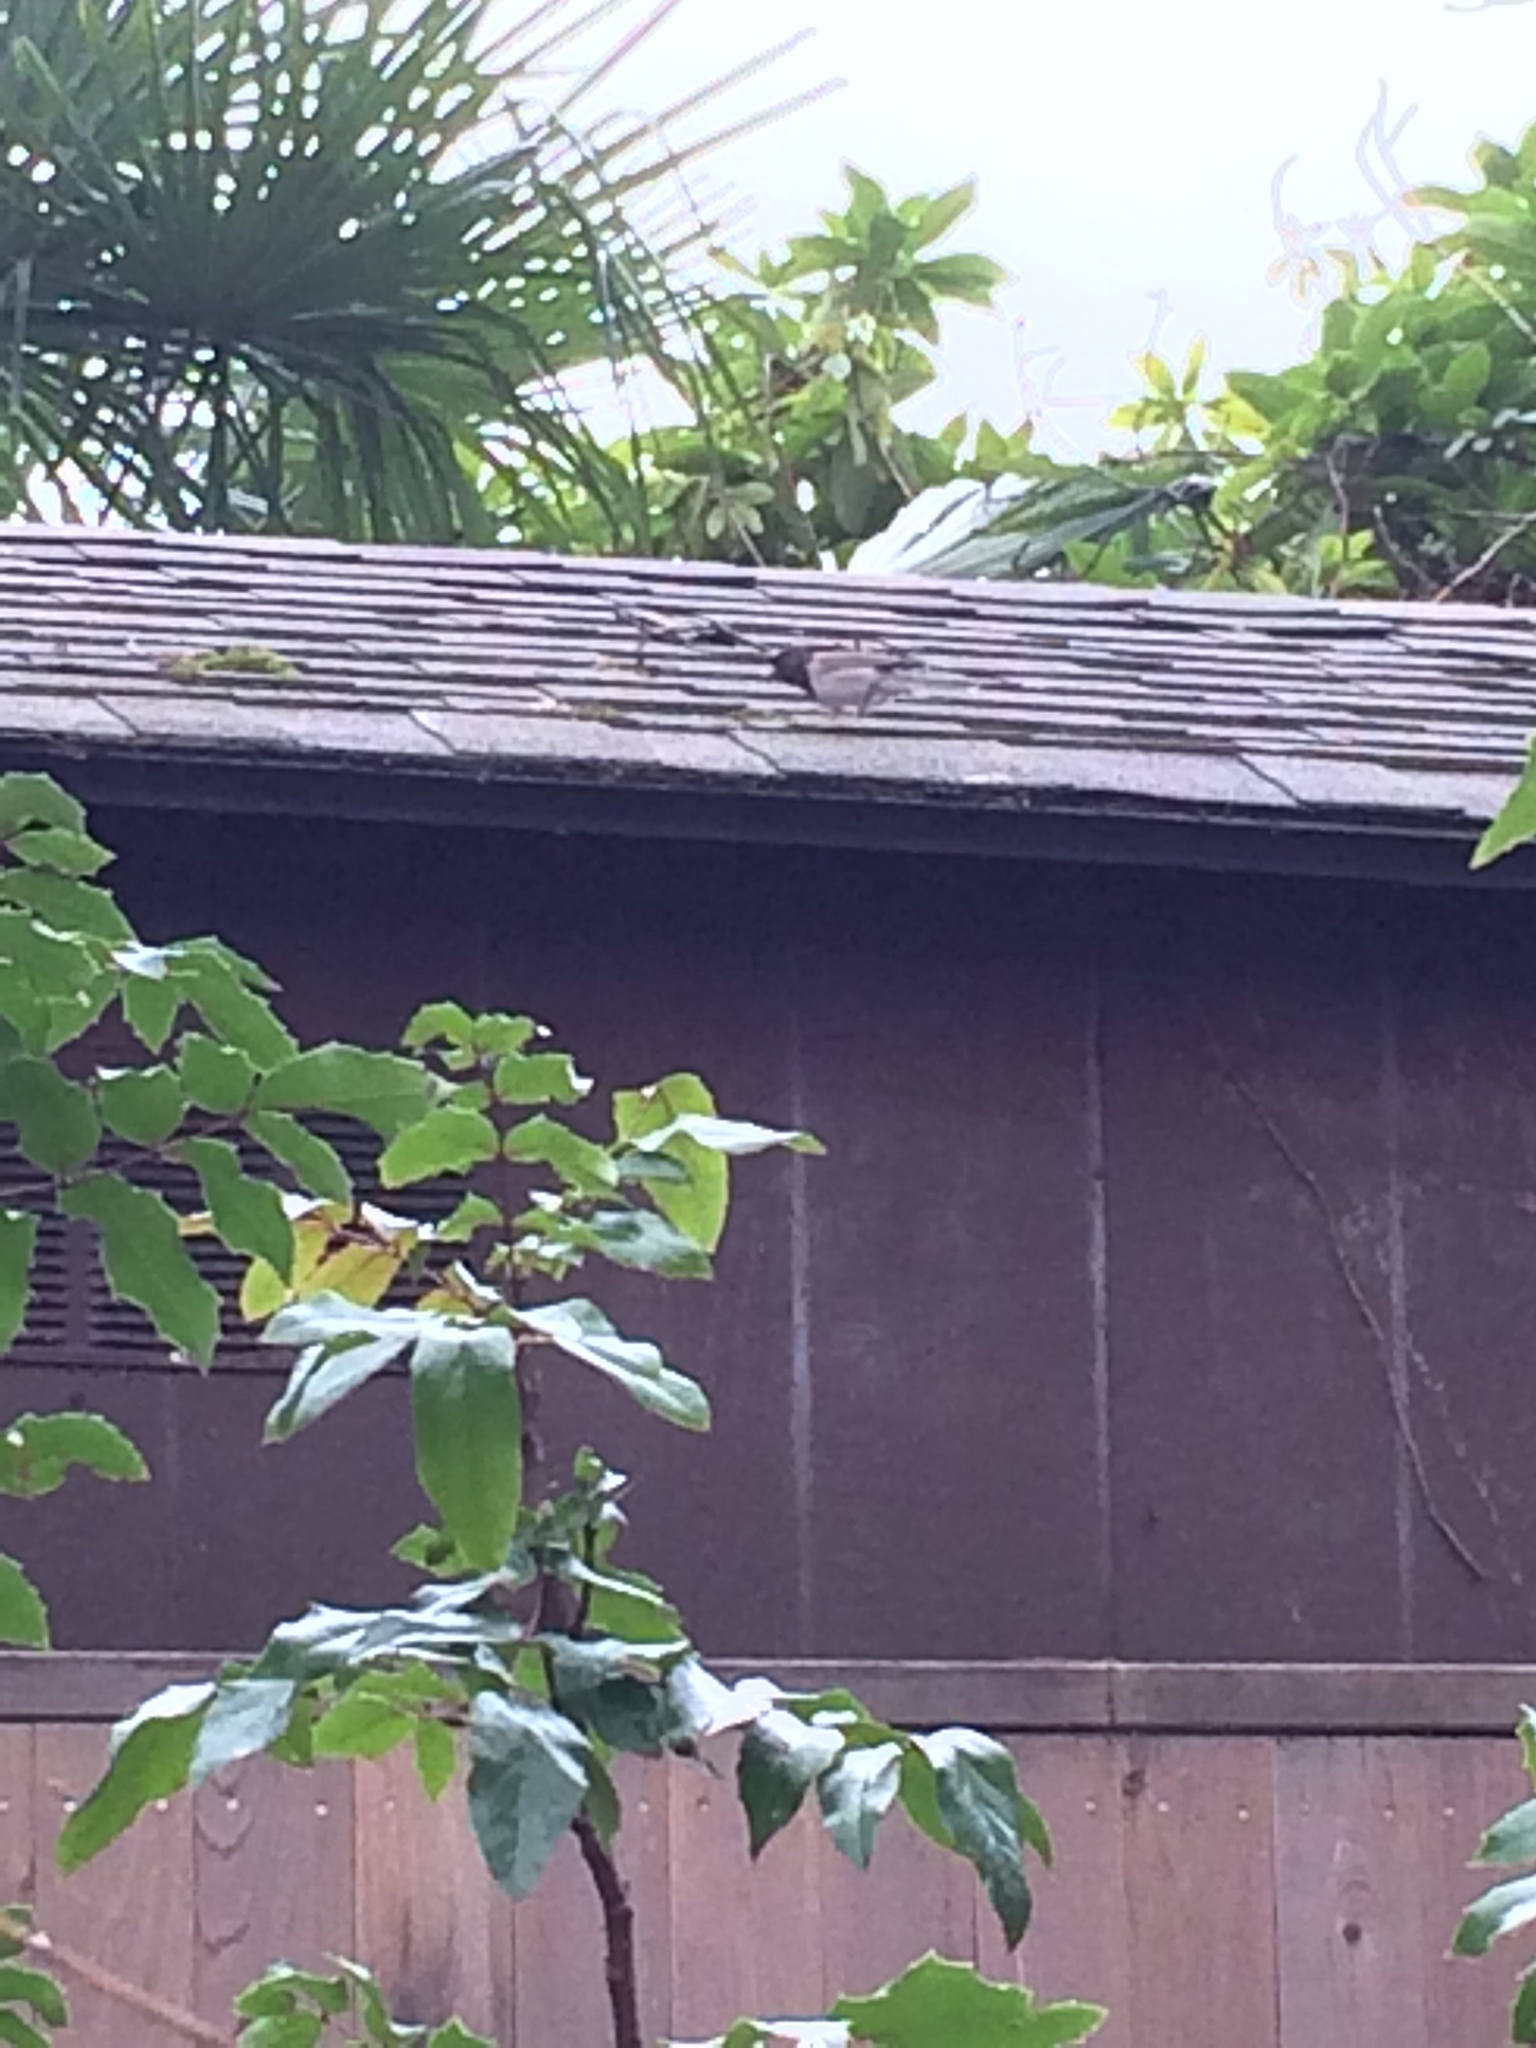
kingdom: Animalia
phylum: Chordata
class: Aves
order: Passeriformes
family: Passerellidae
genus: Junco
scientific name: Junco hyemalis
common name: Dark-eyed junco
